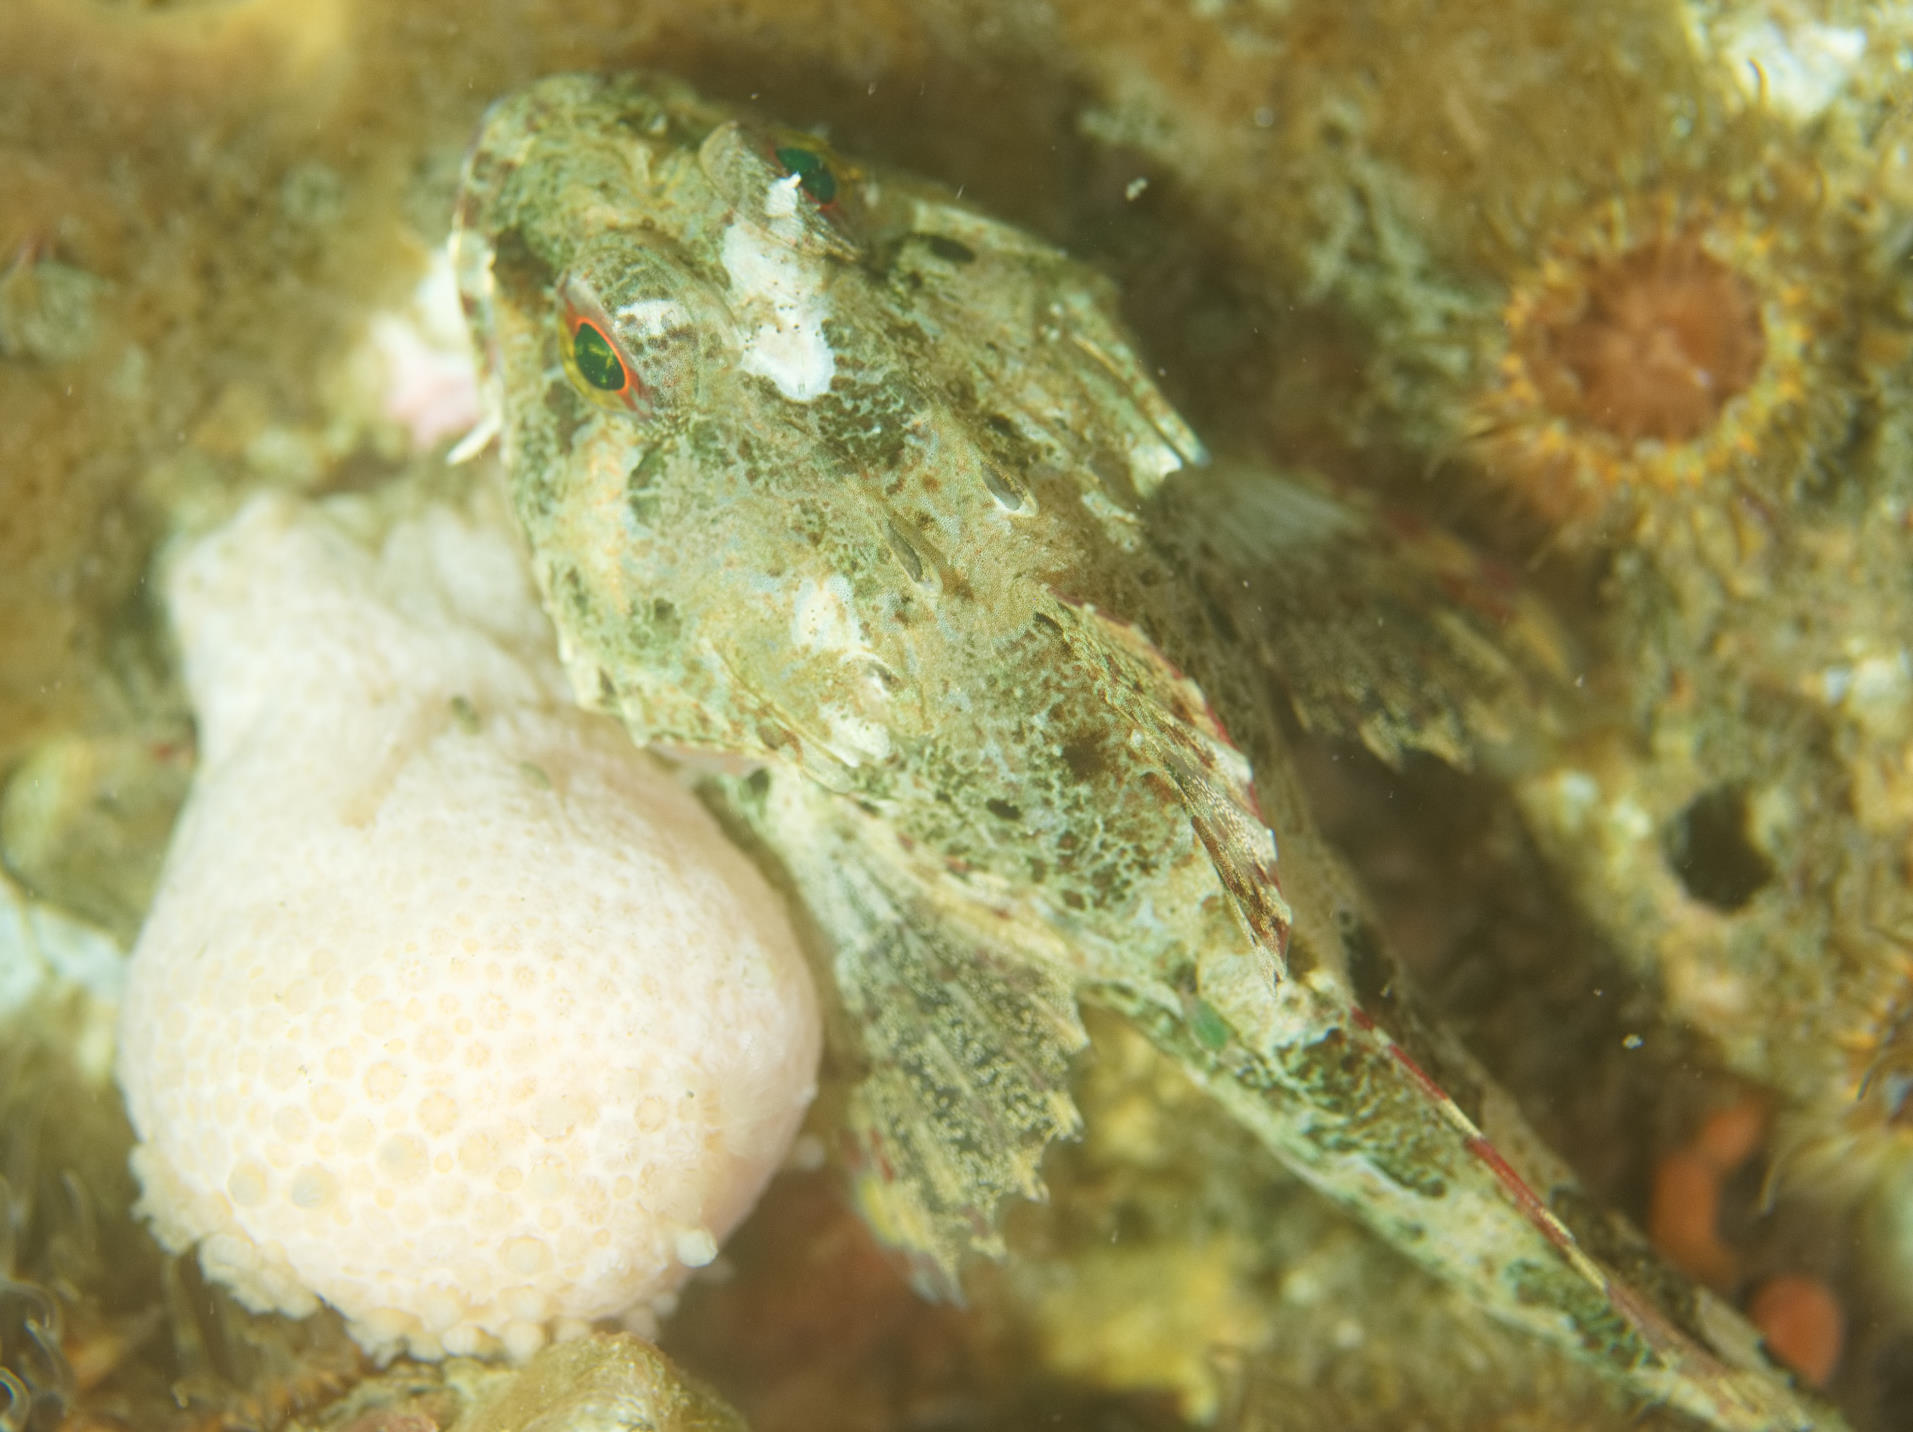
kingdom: Animalia
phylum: Chordata
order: Scorpaeniformes
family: Cottidae
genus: Taurulus
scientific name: Taurulus bubalis
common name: Sea scorpion
